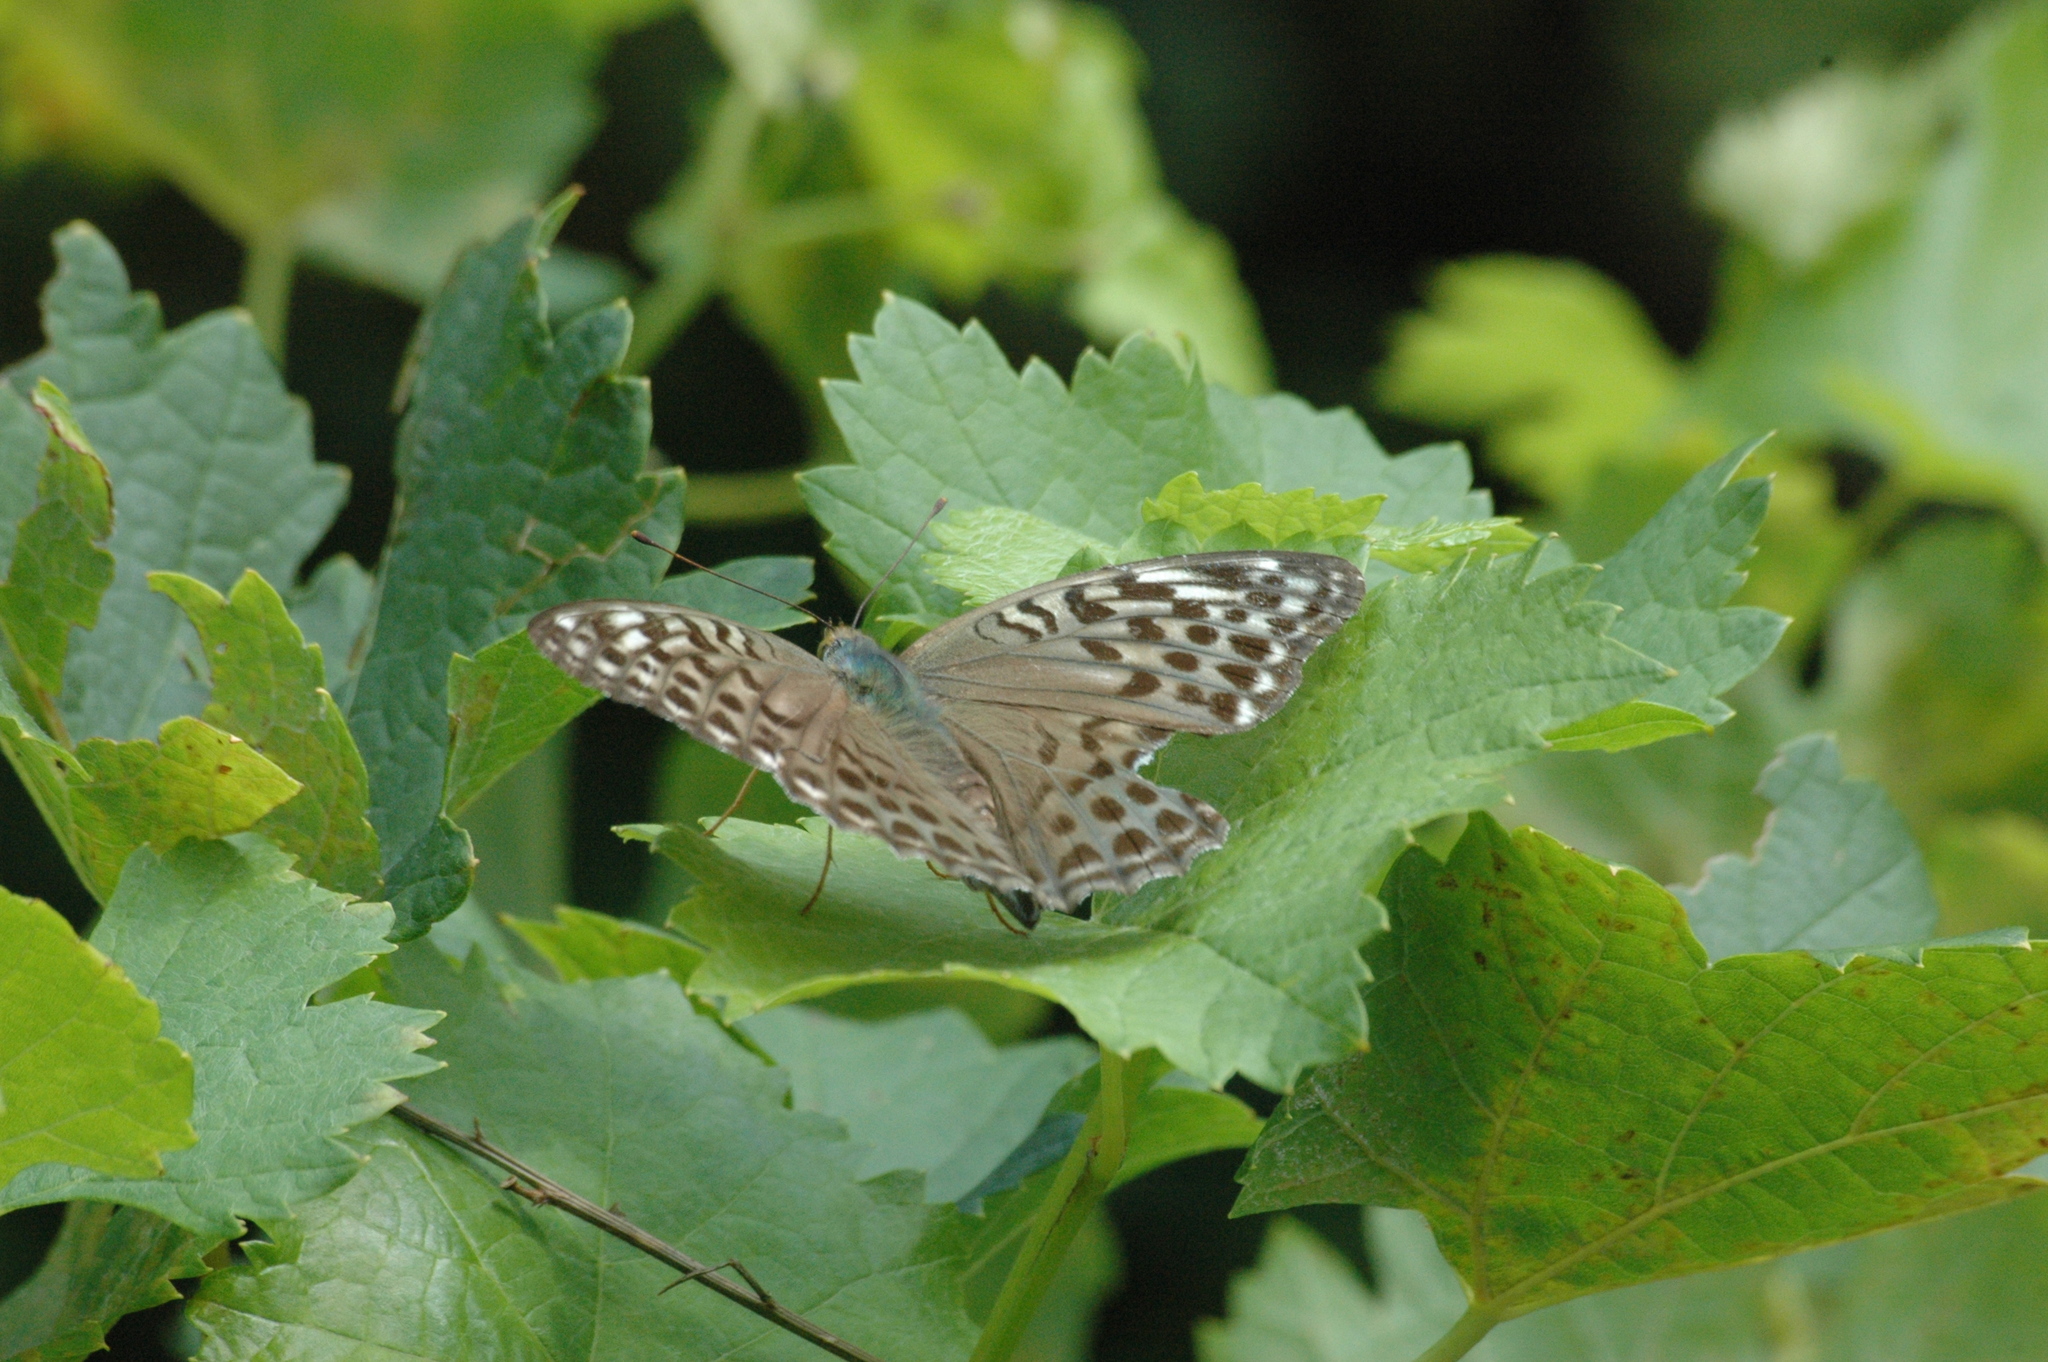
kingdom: Animalia
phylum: Arthropoda
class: Insecta
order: Lepidoptera
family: Nymphalidae
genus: Argynnis
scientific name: Argynnis paphia
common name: Silver-washed fritillary
